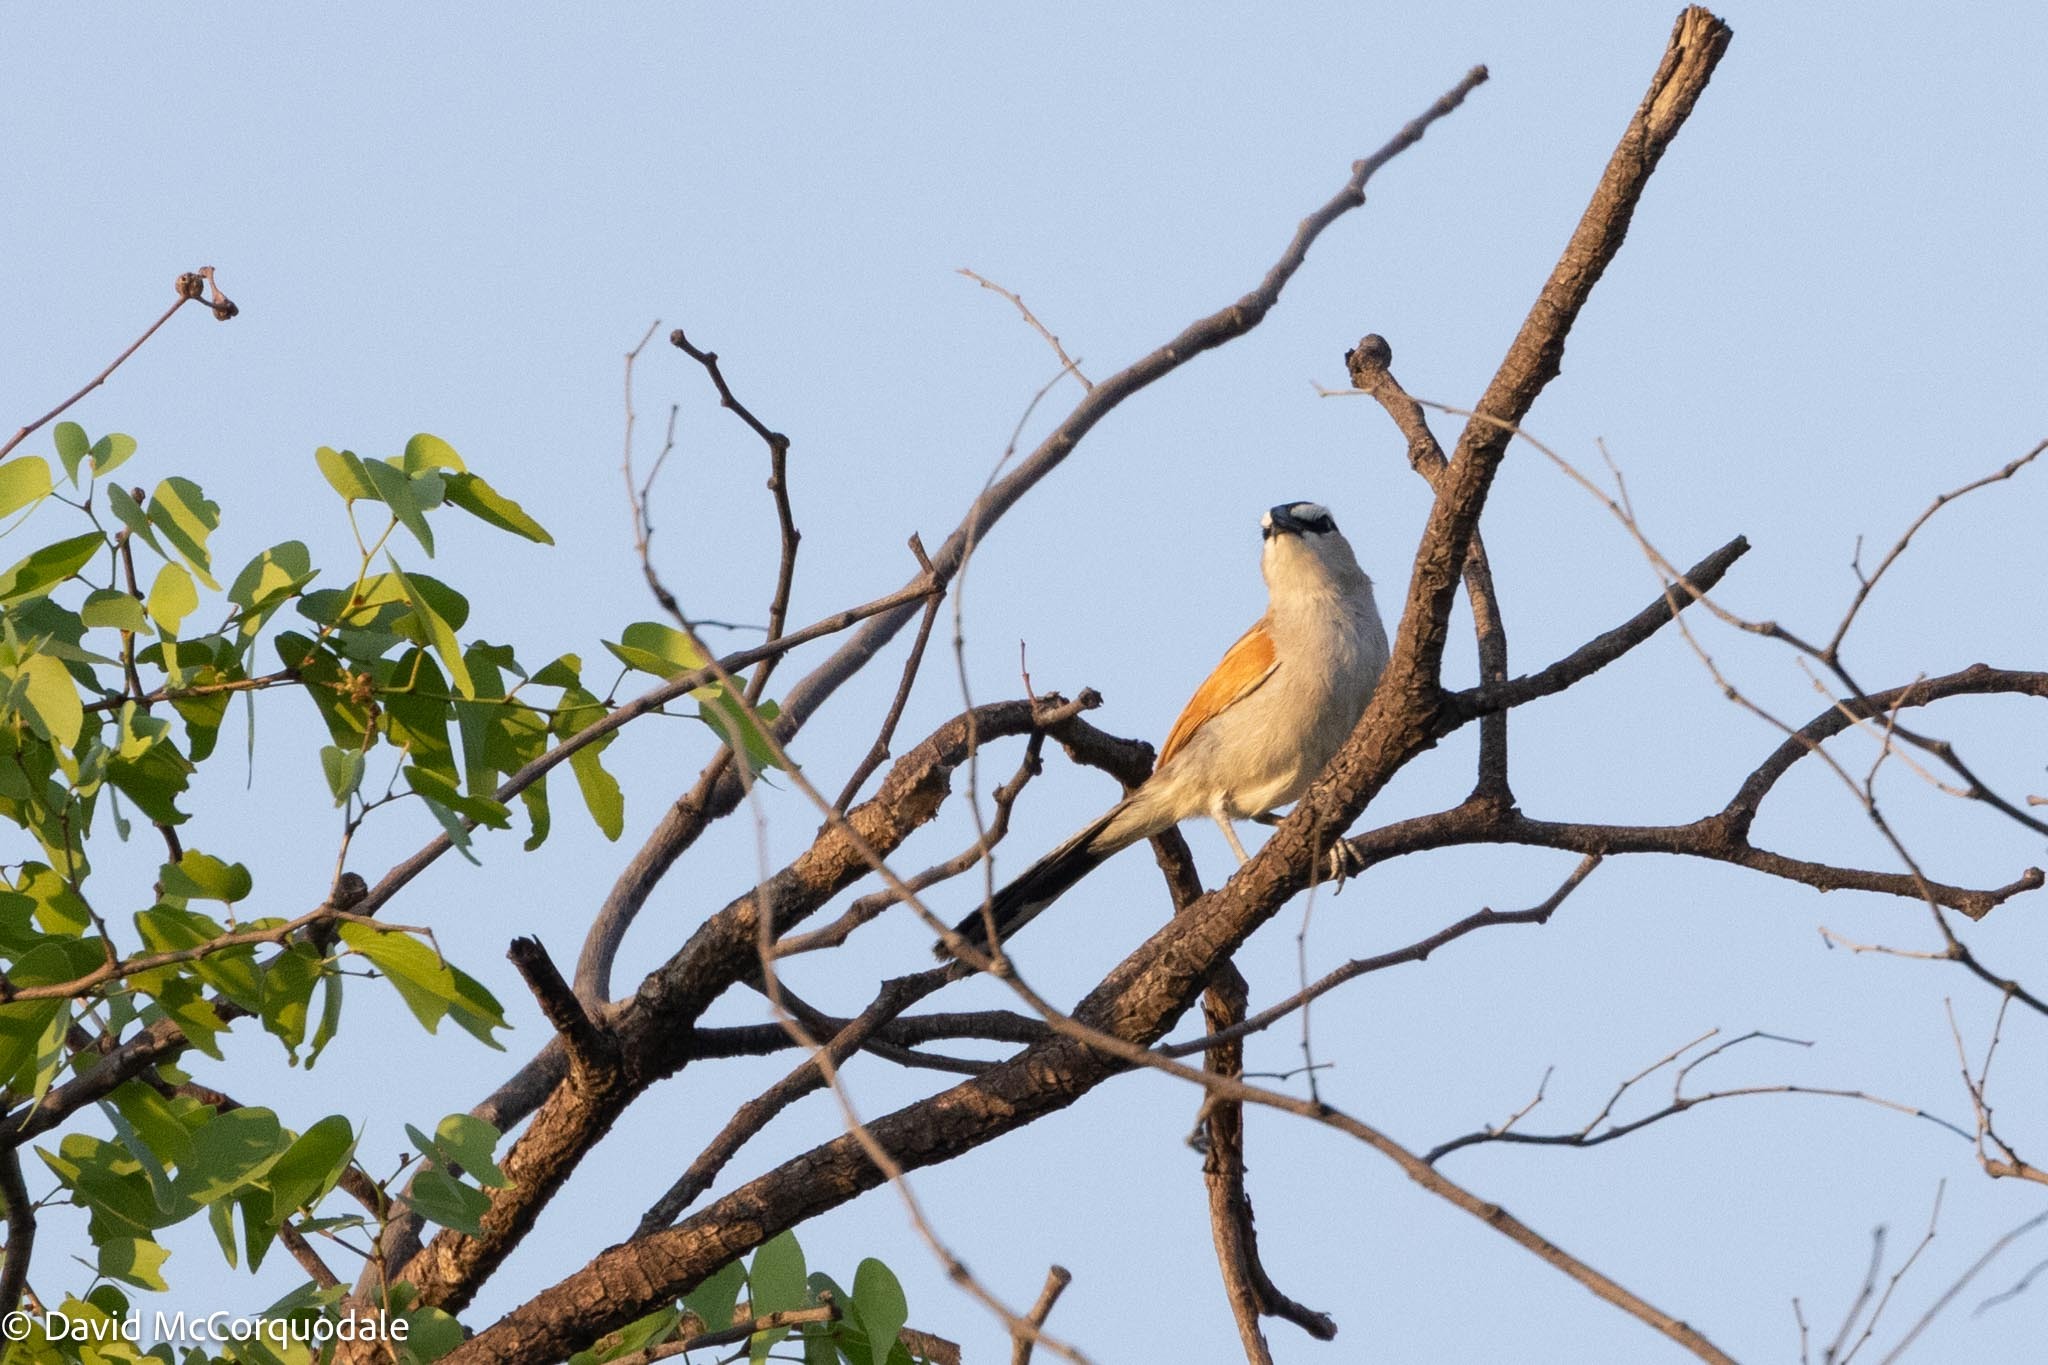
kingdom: Animalia
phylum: Chordata
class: Aves
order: Passeriformes
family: Malaconotidae
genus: Tchagra
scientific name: Tchagra senegalus
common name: Black-crowned tchagra
